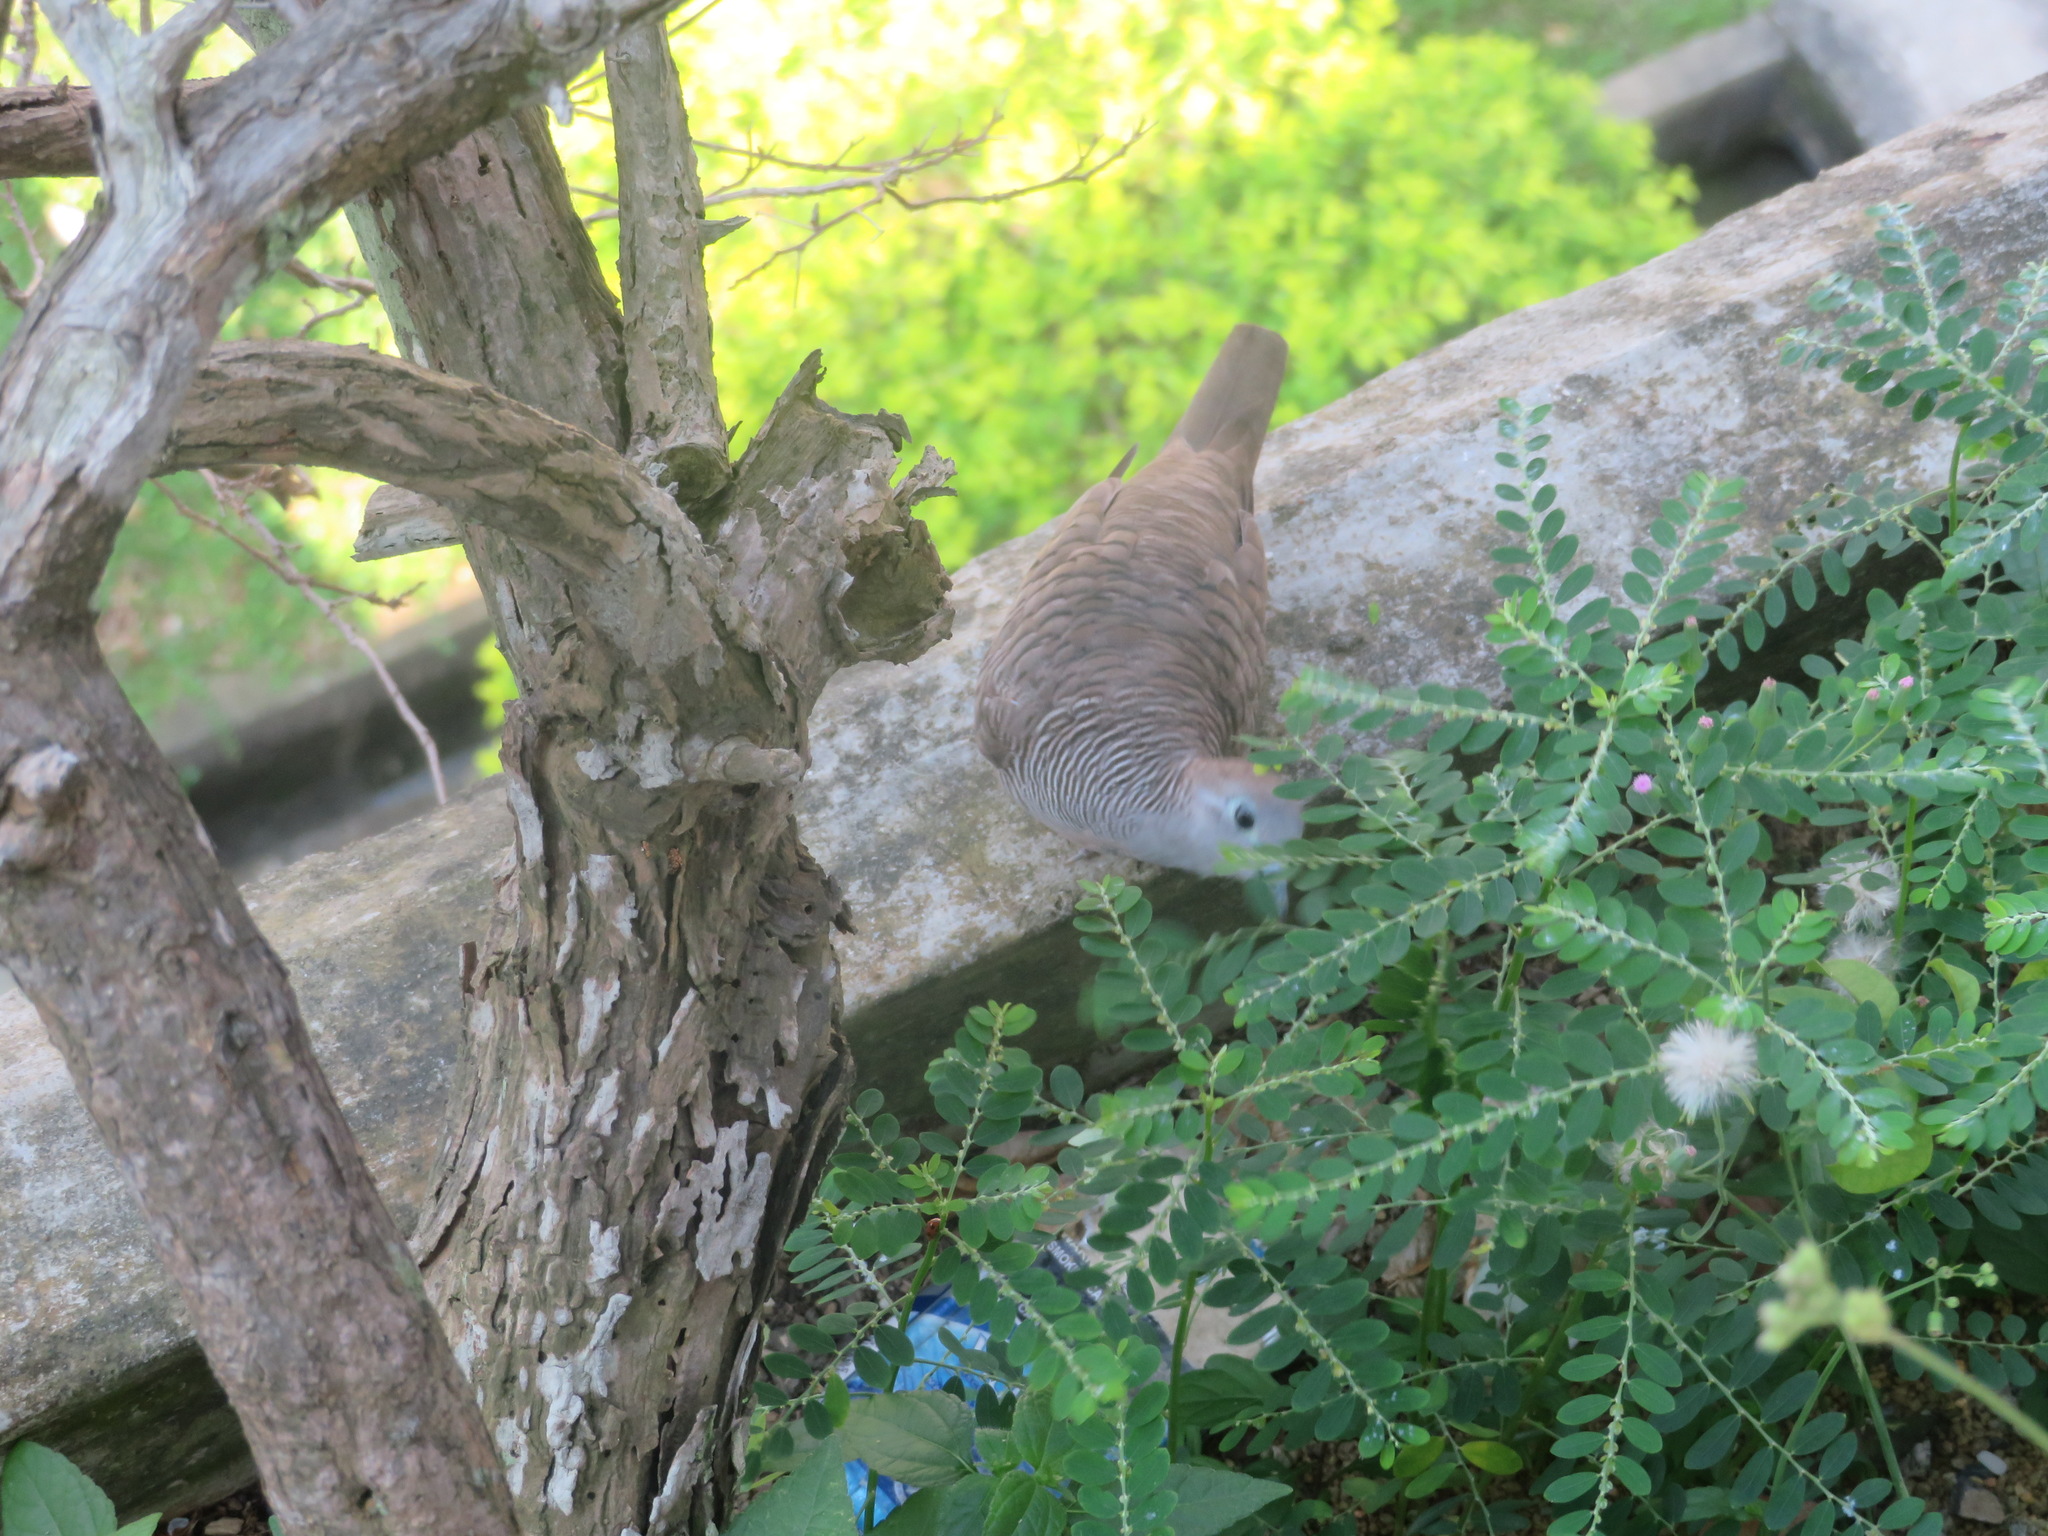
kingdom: Animalia
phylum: Chordata
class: Aves
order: Columbiformes
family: Columbidae
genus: Geopelia
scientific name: Geopelia striata
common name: Zebra dove
